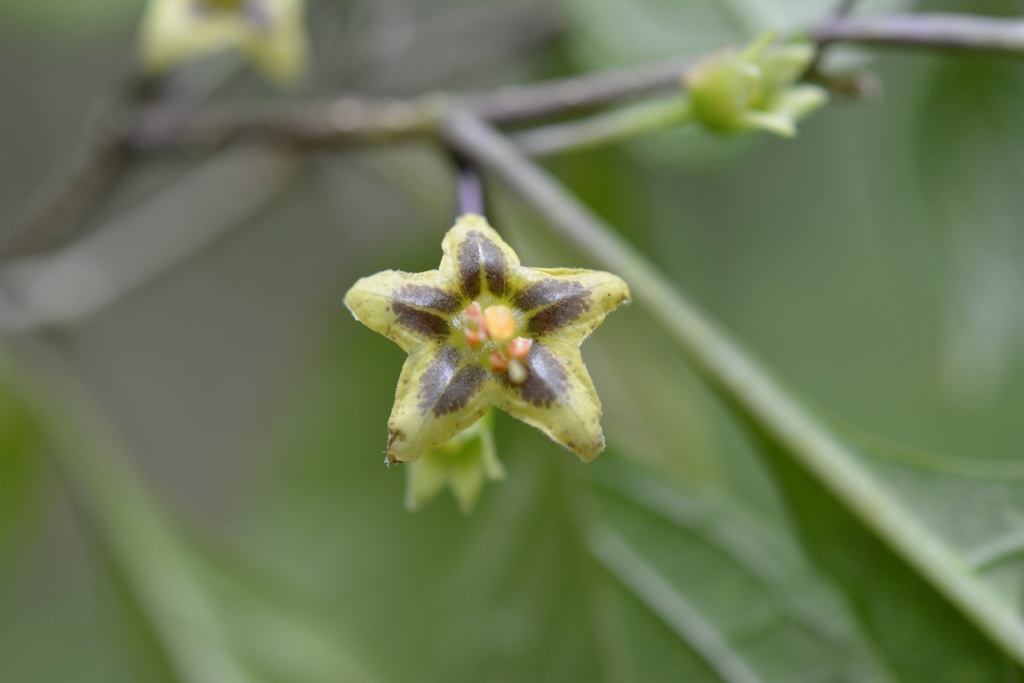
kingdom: Plantae
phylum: Tracheophyta
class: Magnoliopsida
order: Solanales
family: Solanaceae
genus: Physalis
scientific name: Physalis campechiana
